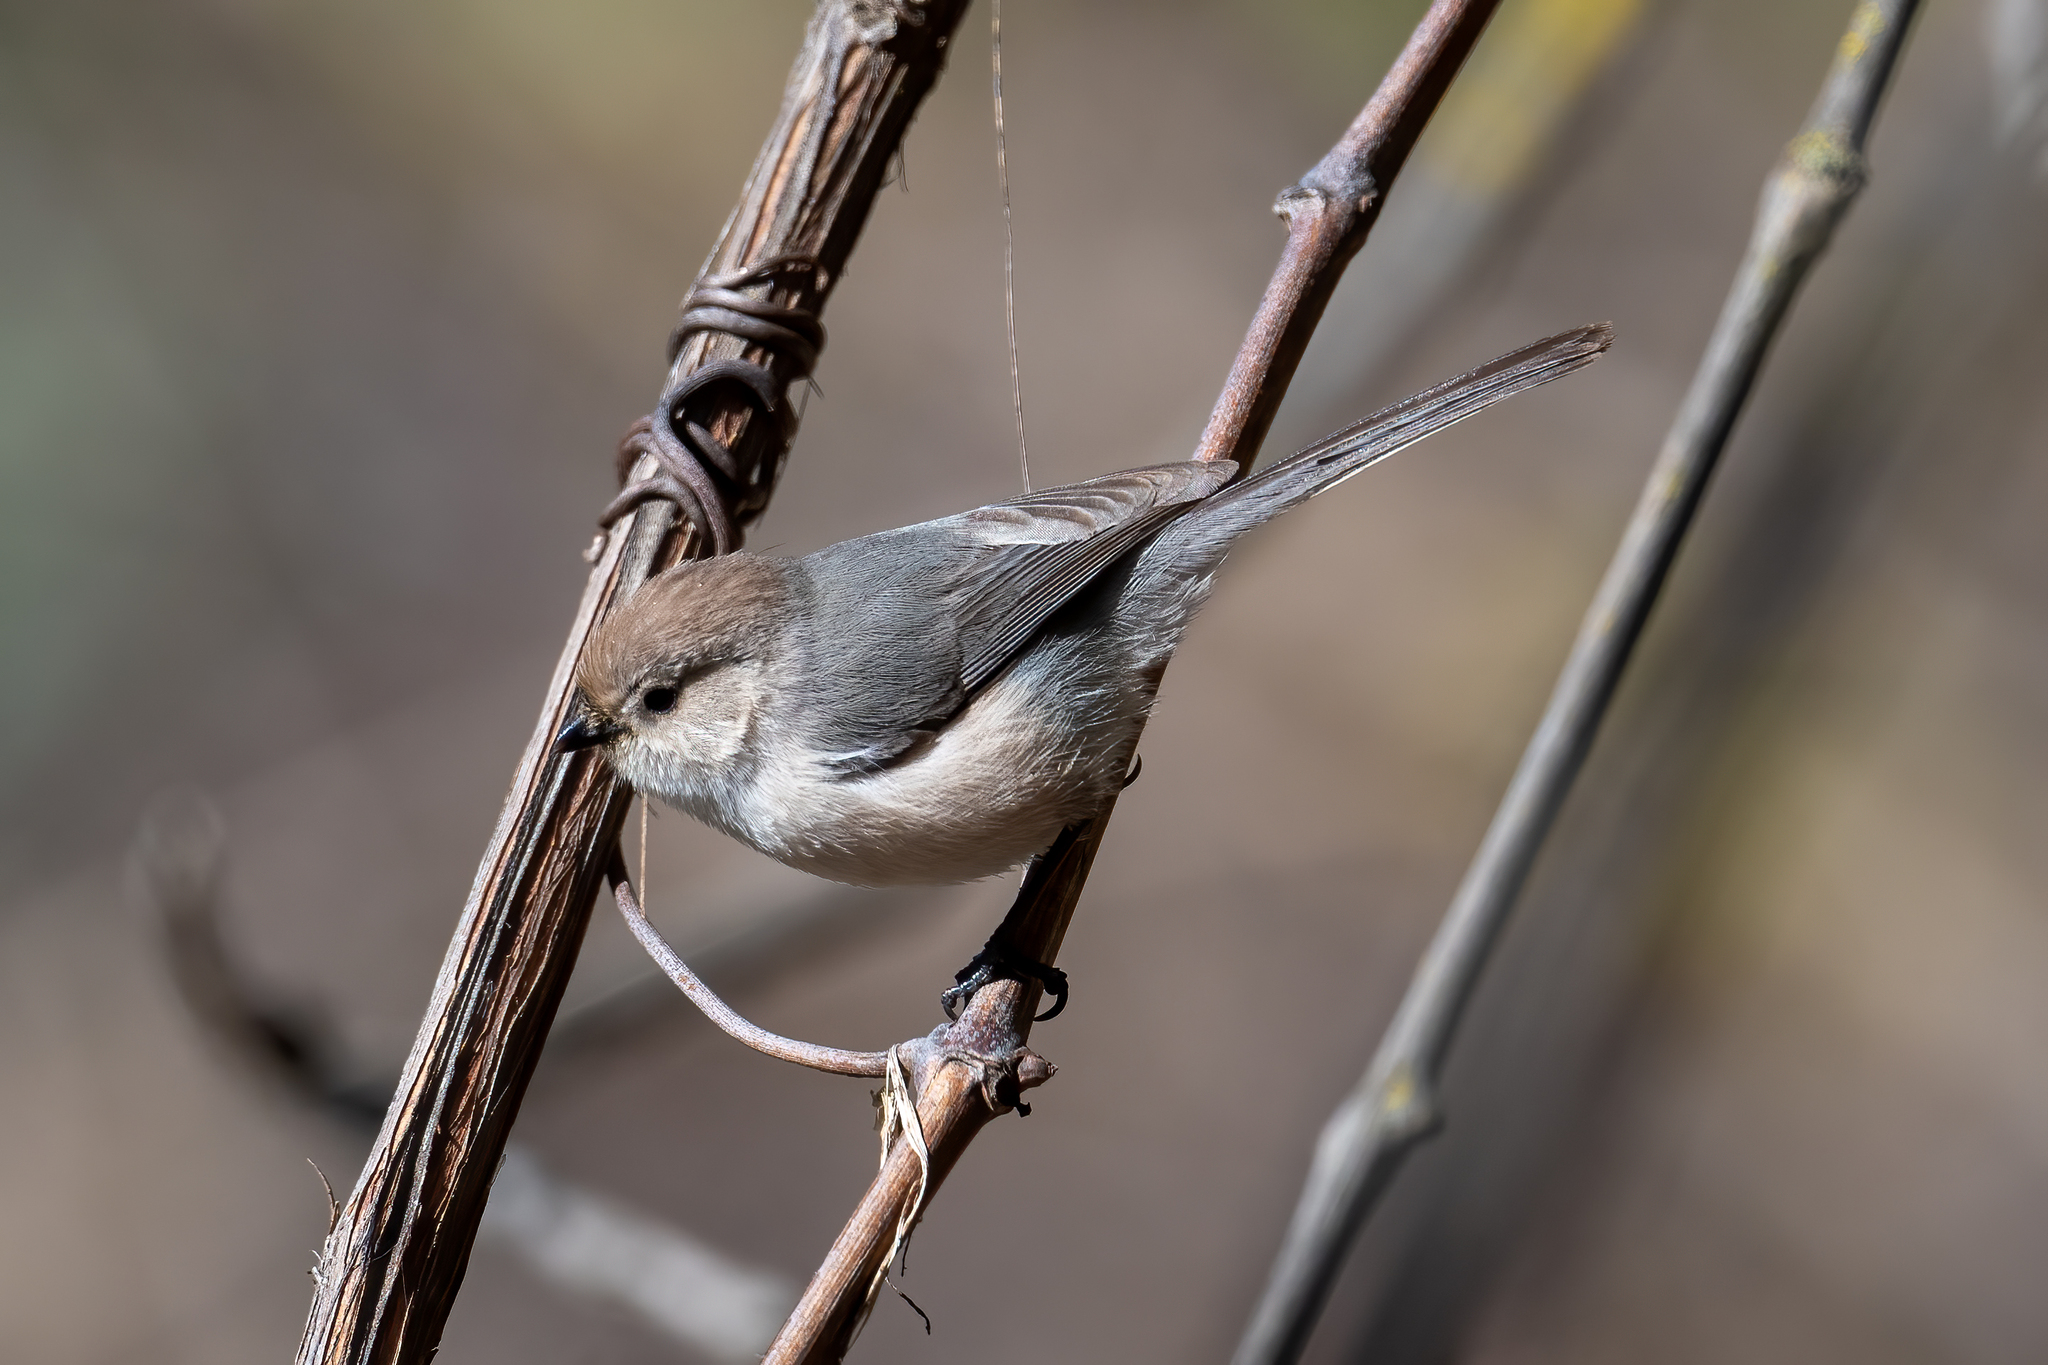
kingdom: Animalia
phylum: Chordata
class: Aves
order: Passeriformes
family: Aegithalidae
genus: Psaltriparus
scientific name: Psaltriparus minimus
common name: American bushtit
